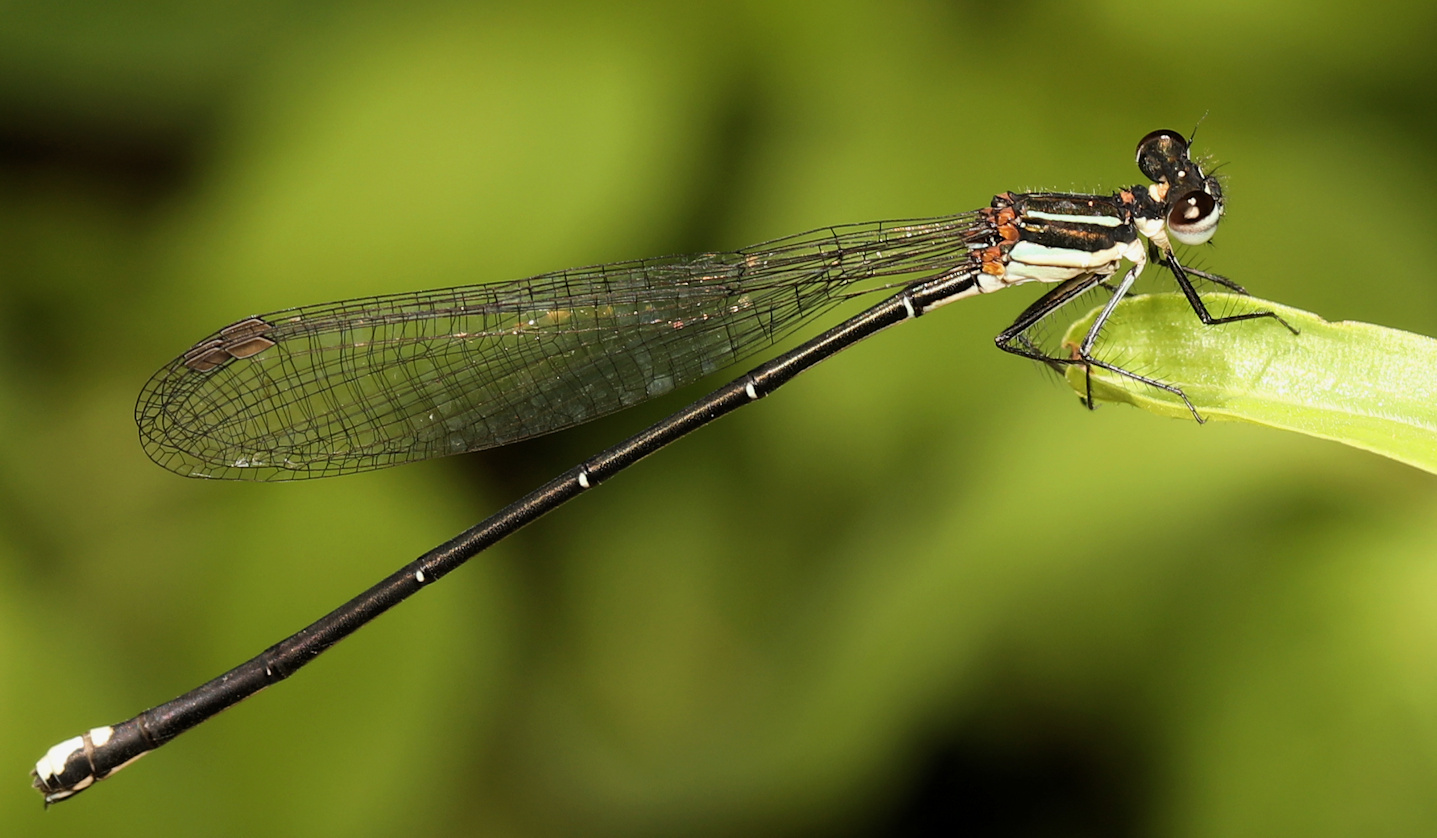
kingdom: Animalia
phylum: Arthropoda
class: Insecta
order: Odonata
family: Platycnemididae
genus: Allocnemis
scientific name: Allocnemis leucosticta
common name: Goldtail
